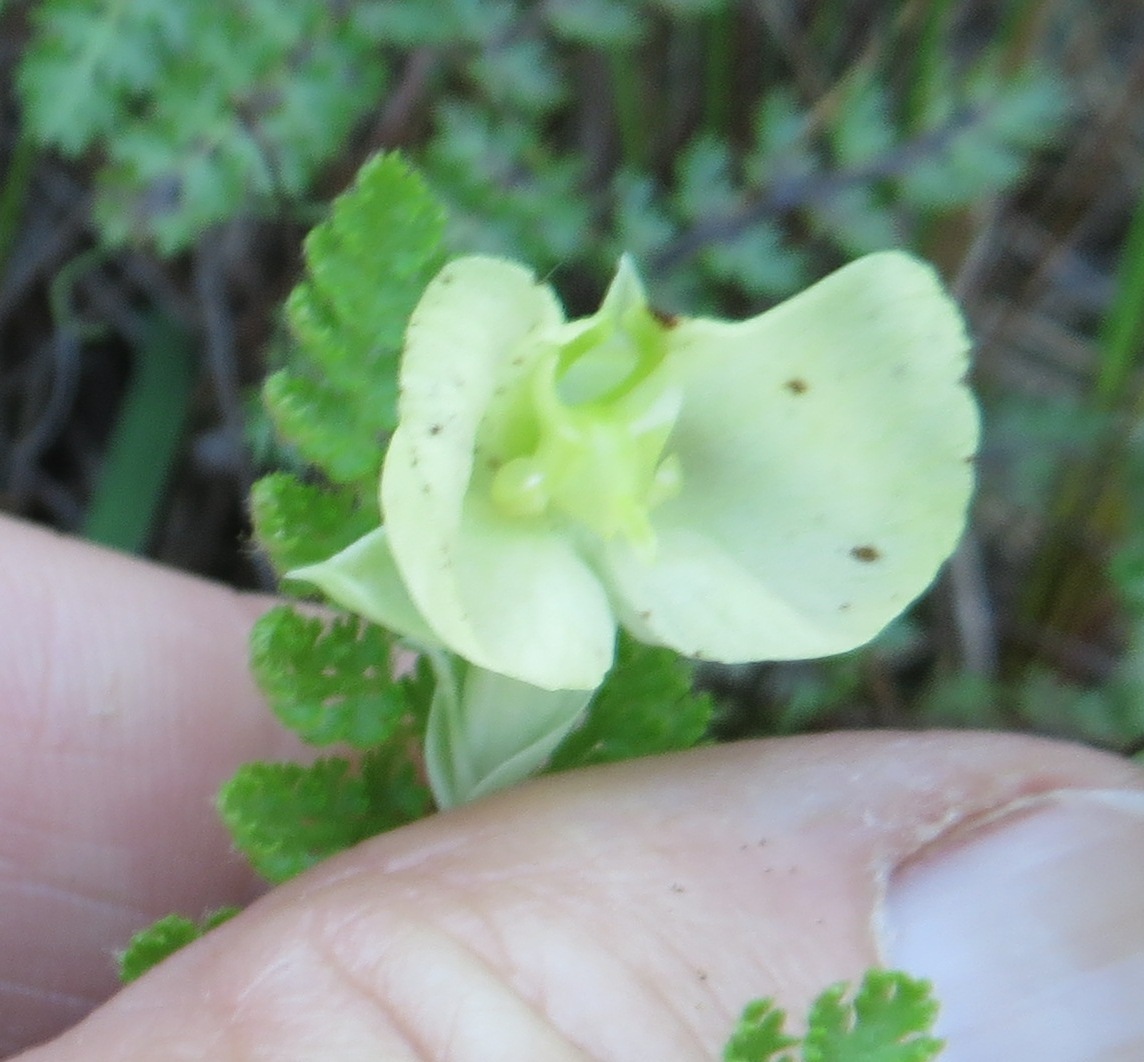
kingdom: Plantae
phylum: Tracheophyta
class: Liliopsida
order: Asparagales
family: Orchidaceae
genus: Pterygodium
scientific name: Pterygodium platypetalum
